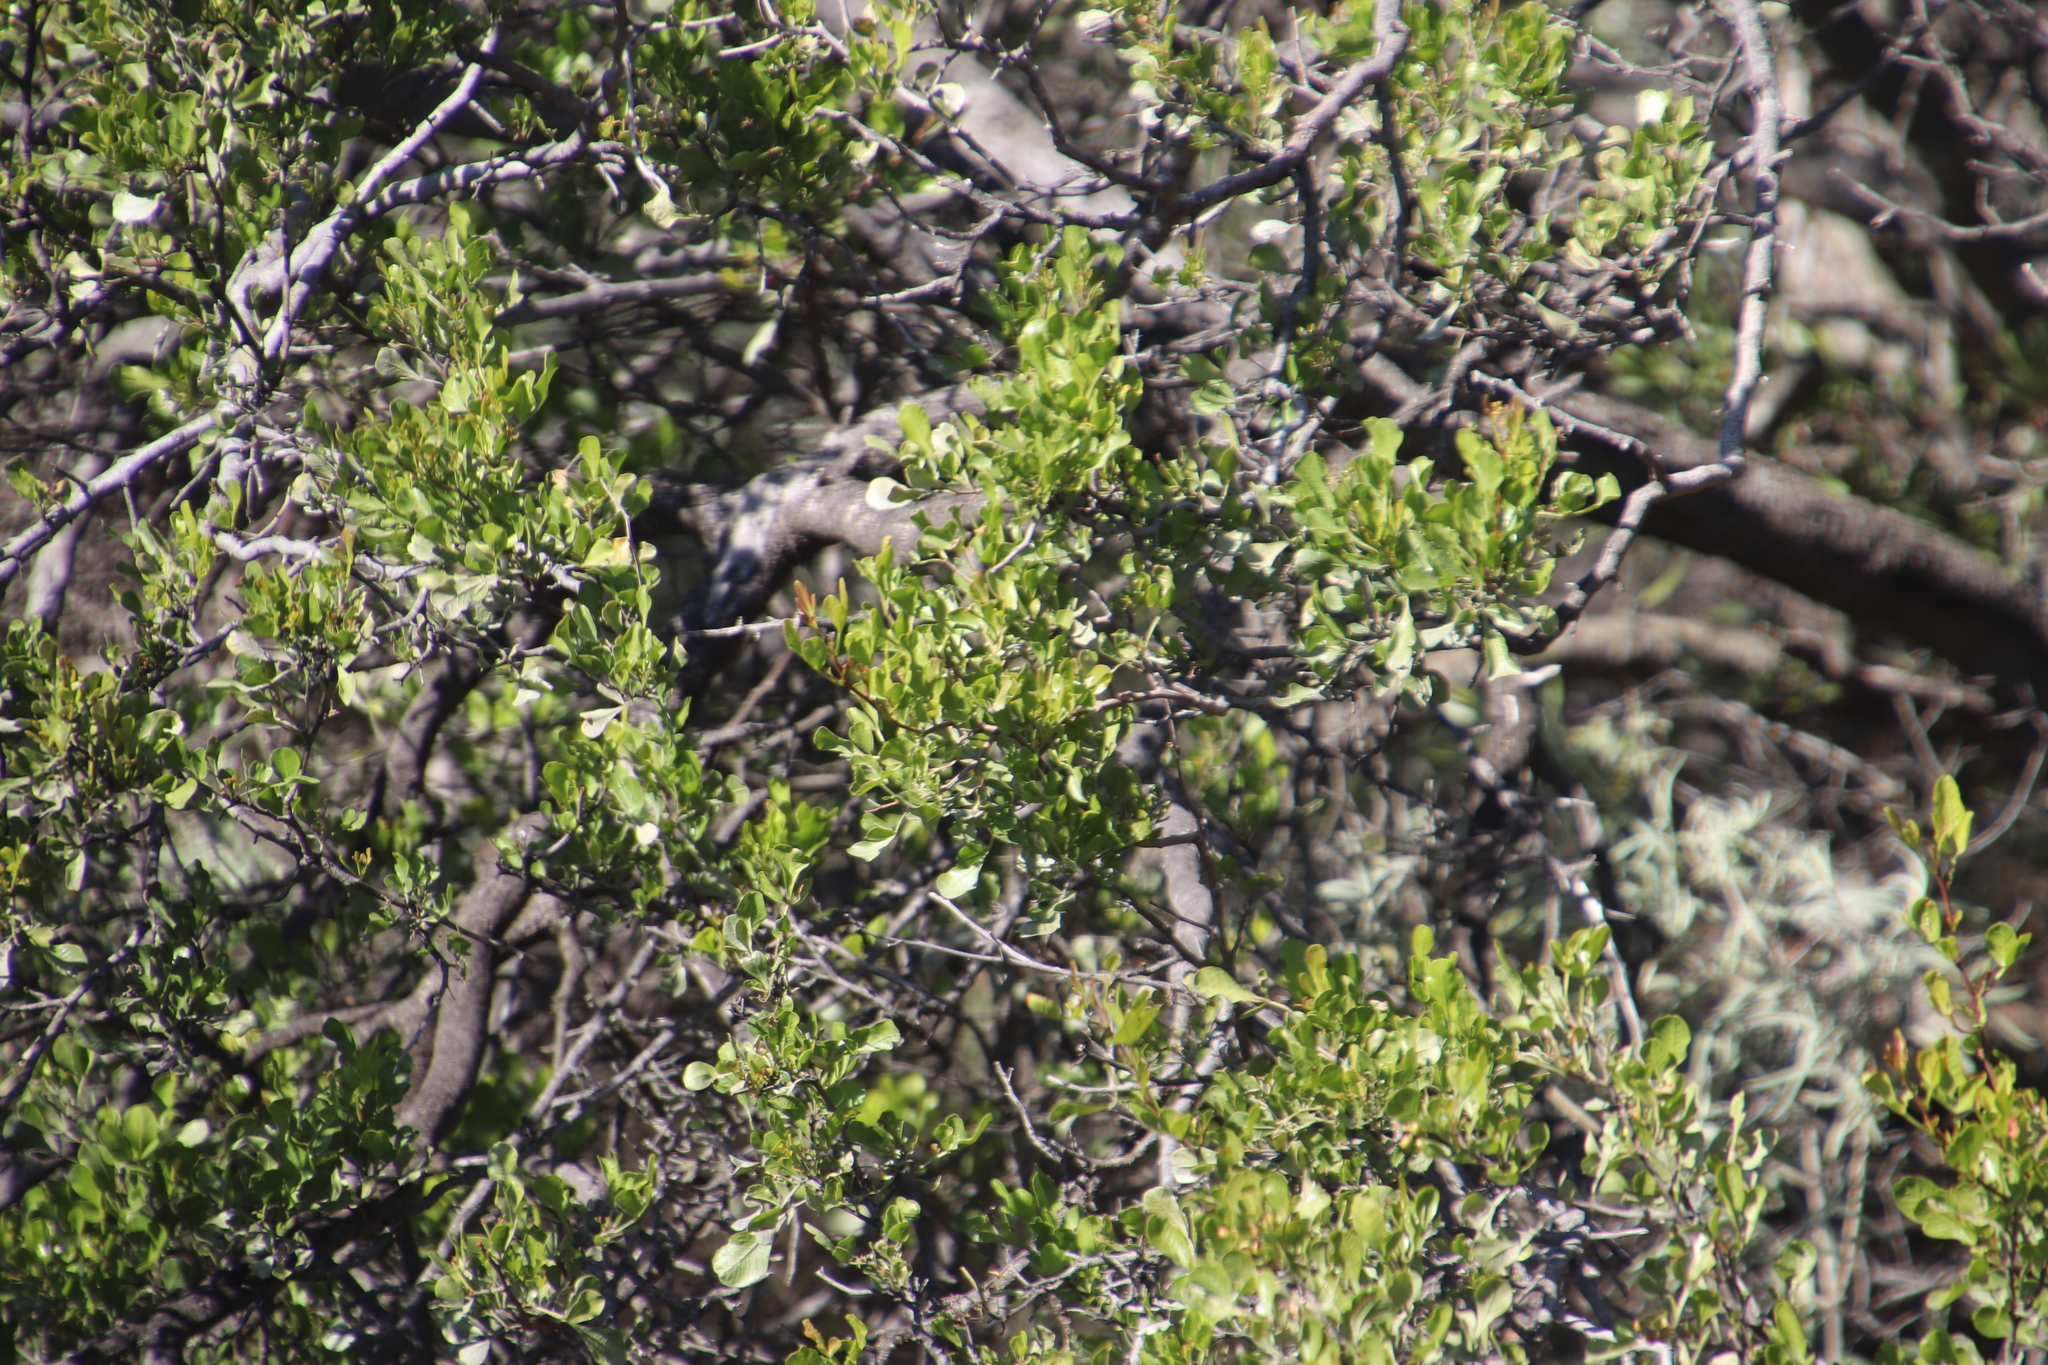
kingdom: Plantae
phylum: Tracheophyta
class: Magnoliopsida
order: Sapindales
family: Anacardiaceae
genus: Searsia
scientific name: Searsia undulata
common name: Namaqua kunibush
